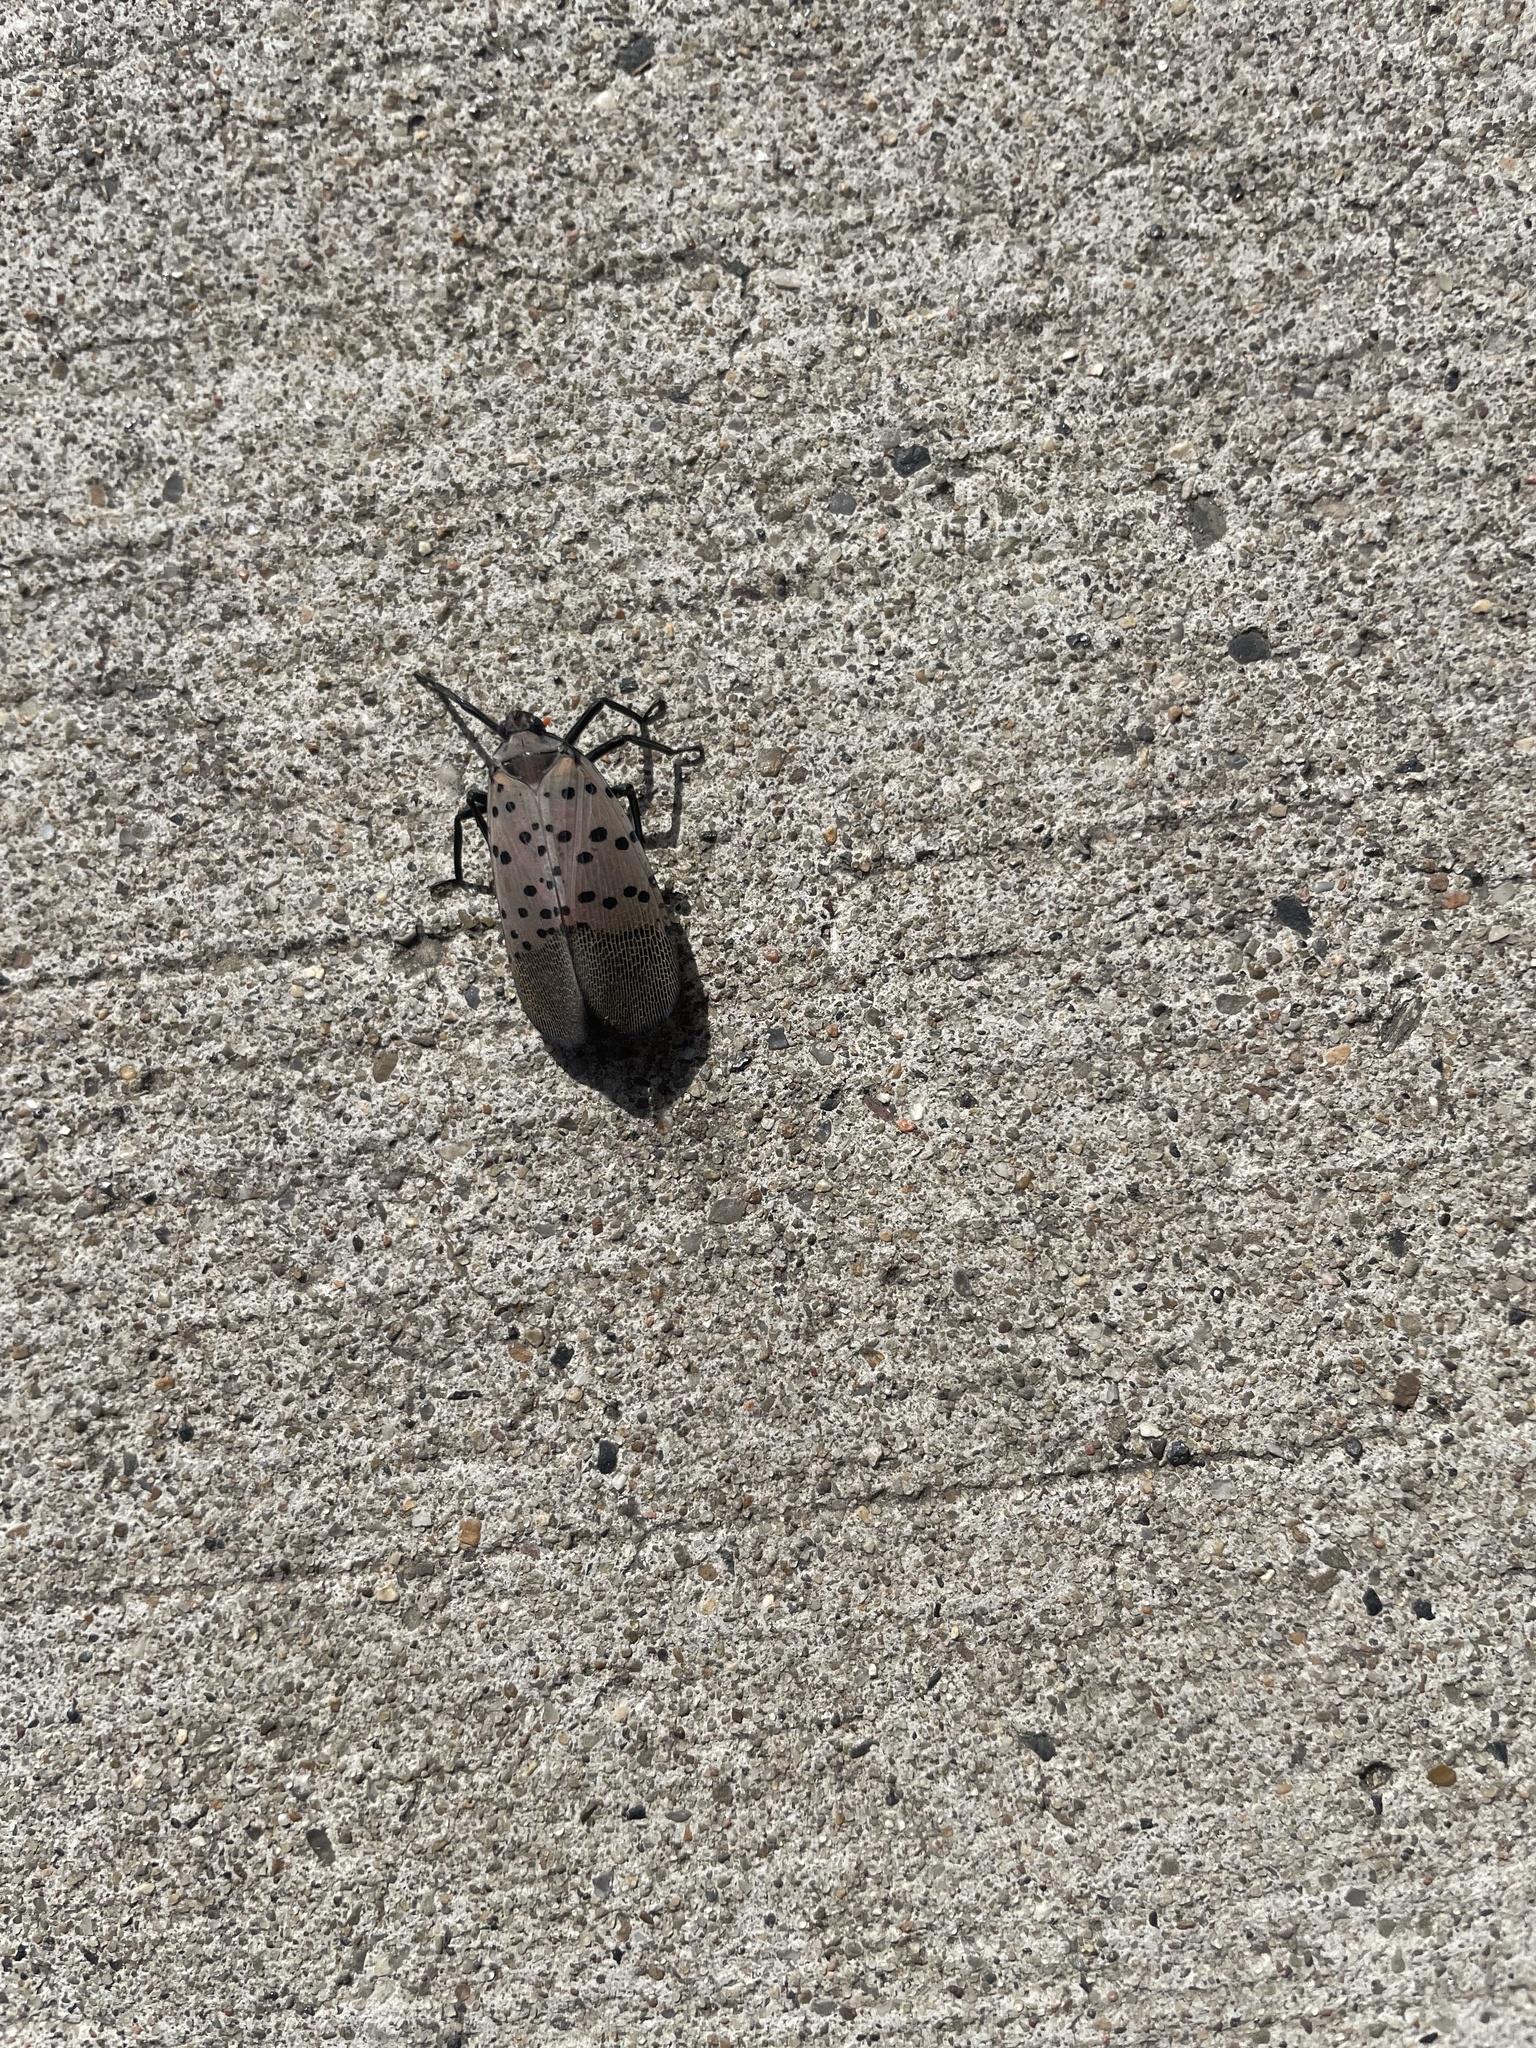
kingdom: Animalia
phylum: Arthropoda
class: Insecta
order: Hemiptera
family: Fulgoridae
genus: Lycorma
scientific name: Lycorma delicatula
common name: Spotted lanternfly
